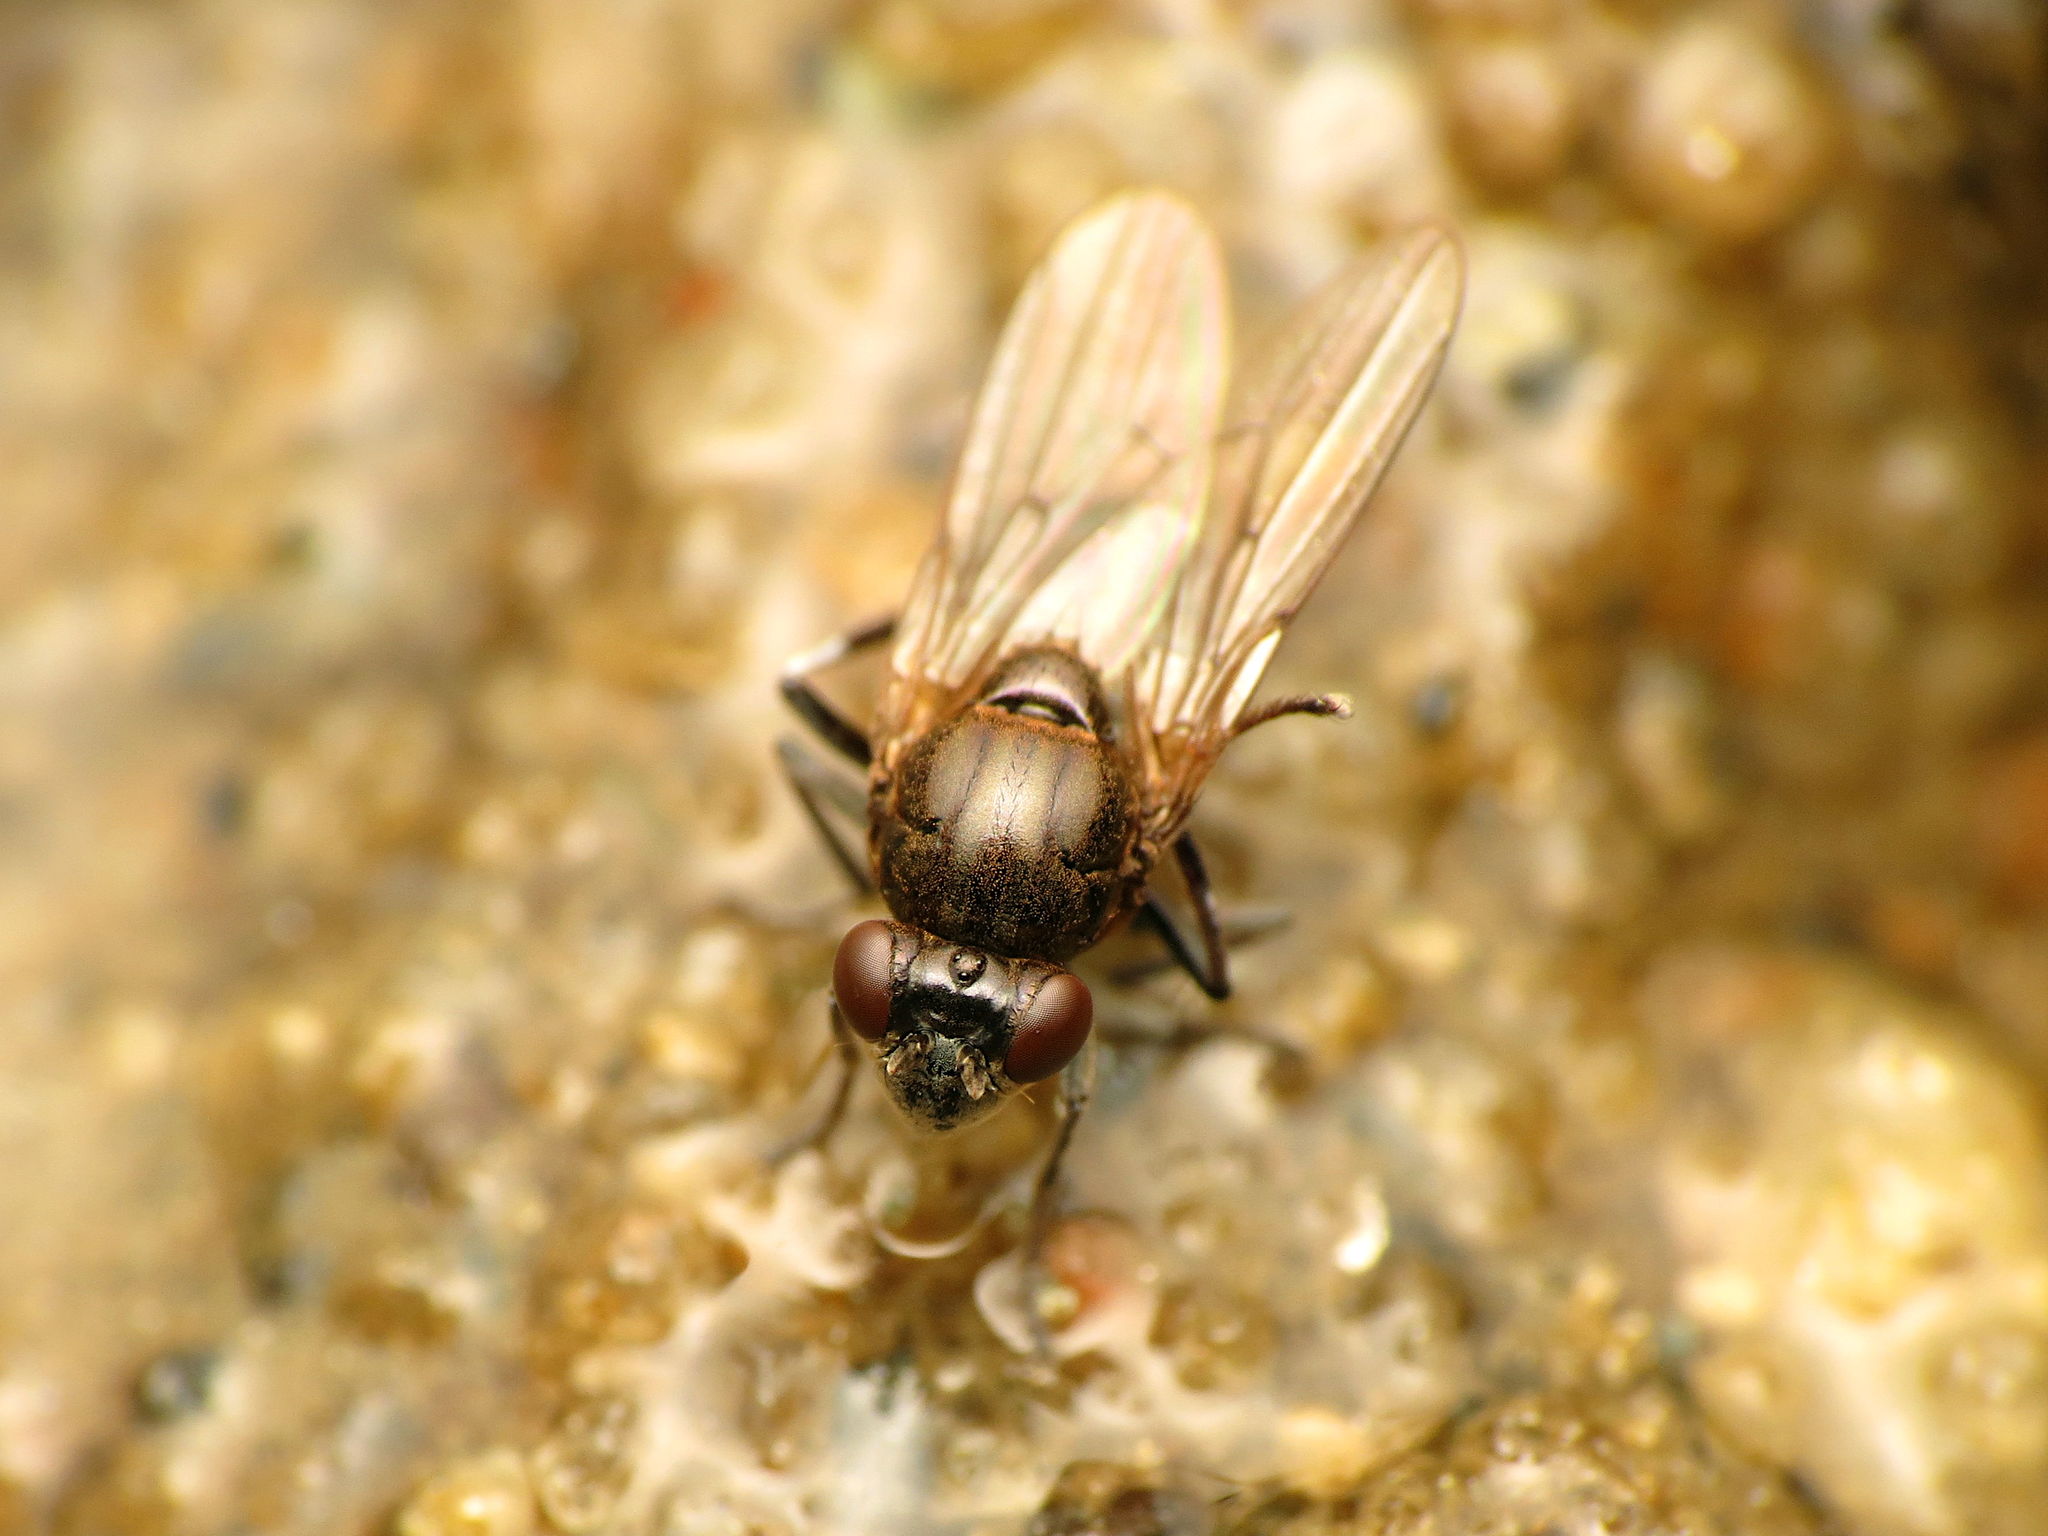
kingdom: Animalia
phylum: Arthropoda
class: Insecta
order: Diptera
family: Ephydridae
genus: Parydra
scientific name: Parydra quadrituberculata
